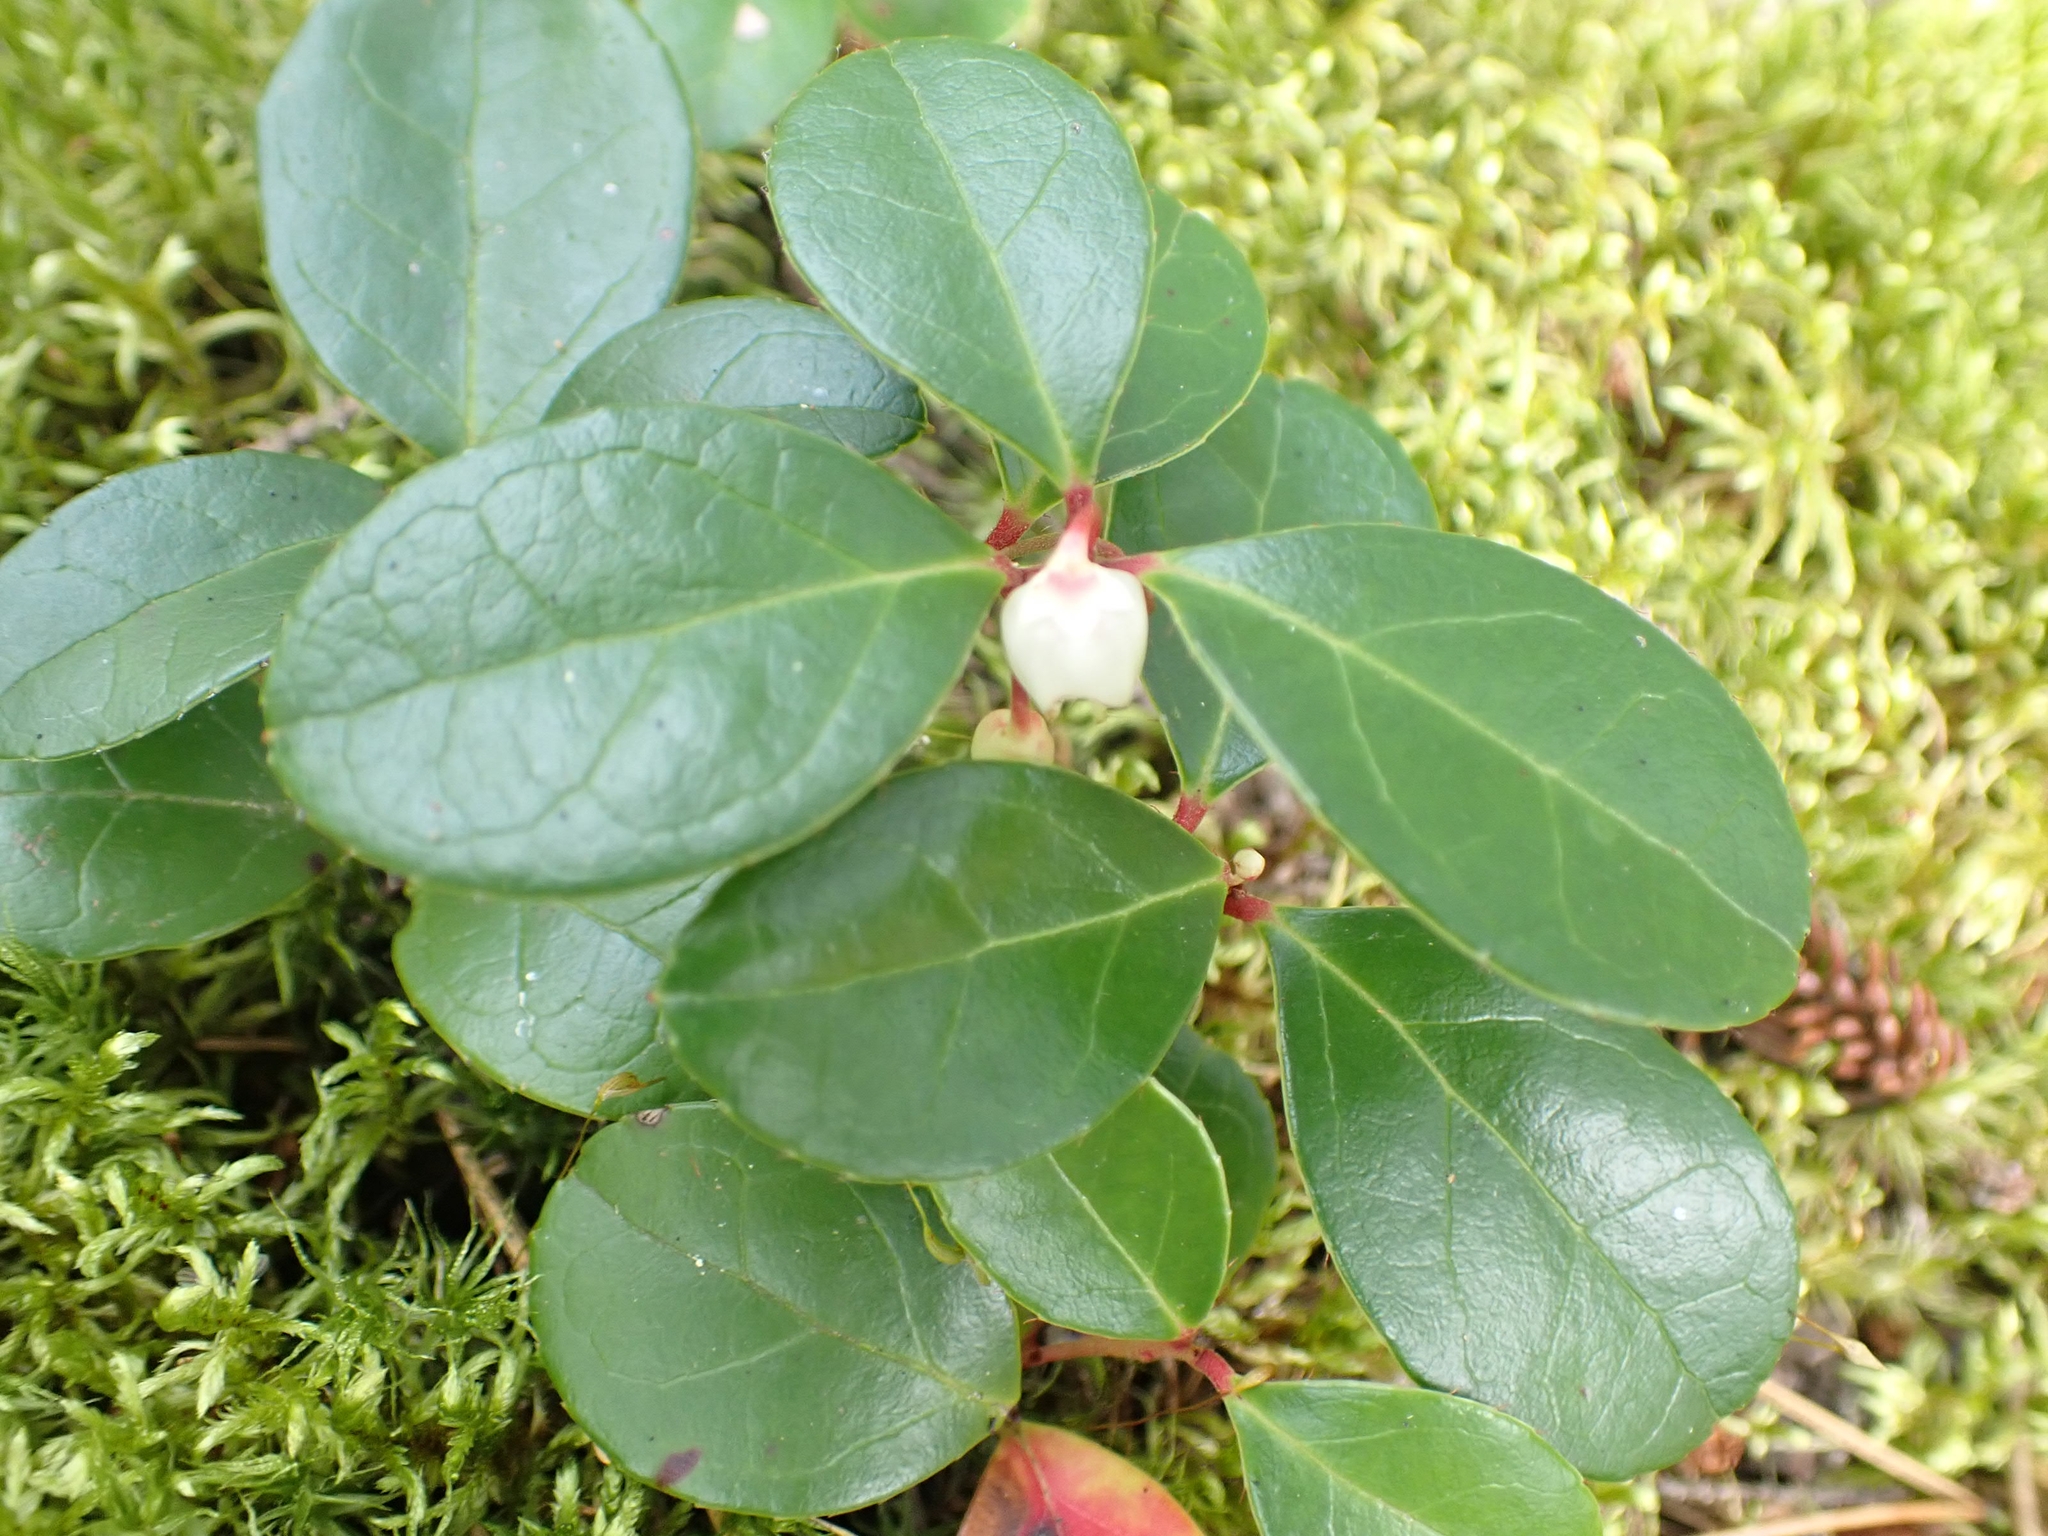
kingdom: Plantae
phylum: Tracheophyta
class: Magnoliopsida
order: Ericales
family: Ericaceae
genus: Gaultheria
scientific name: Gaultheria procumbens
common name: Checkerberry
